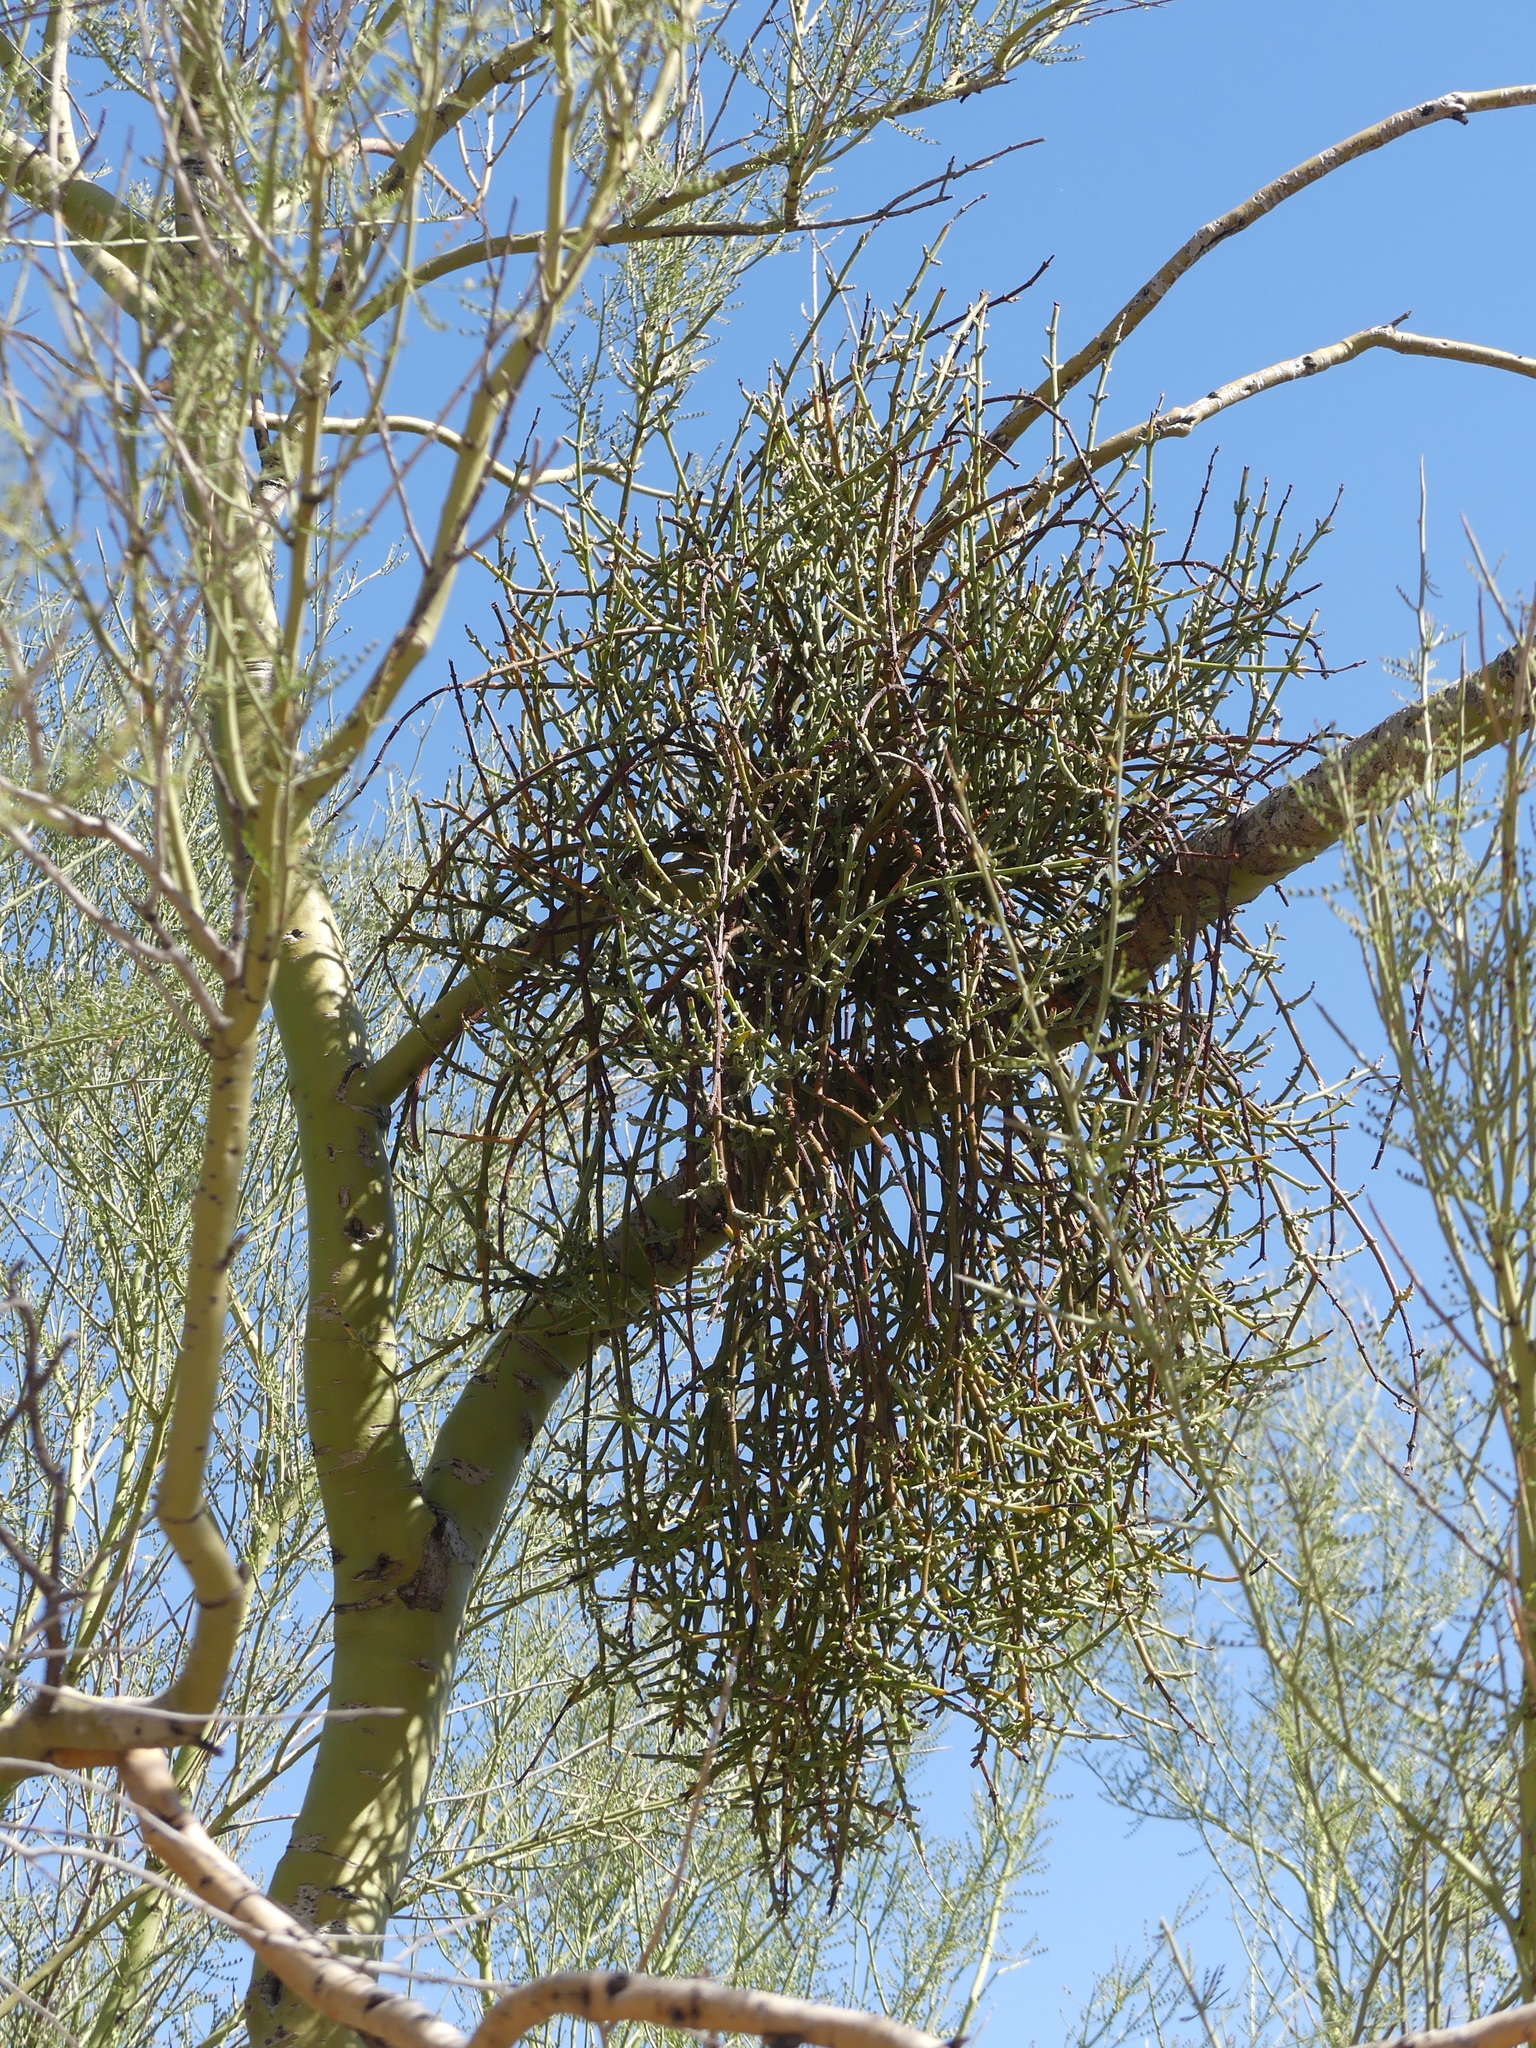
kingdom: Plantae
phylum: Tracheophyta
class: Magnoliopsida
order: Santalales
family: Viscaceae
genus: Phoradendron
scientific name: Phoradendron californicum
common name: Acacia mistletoe
